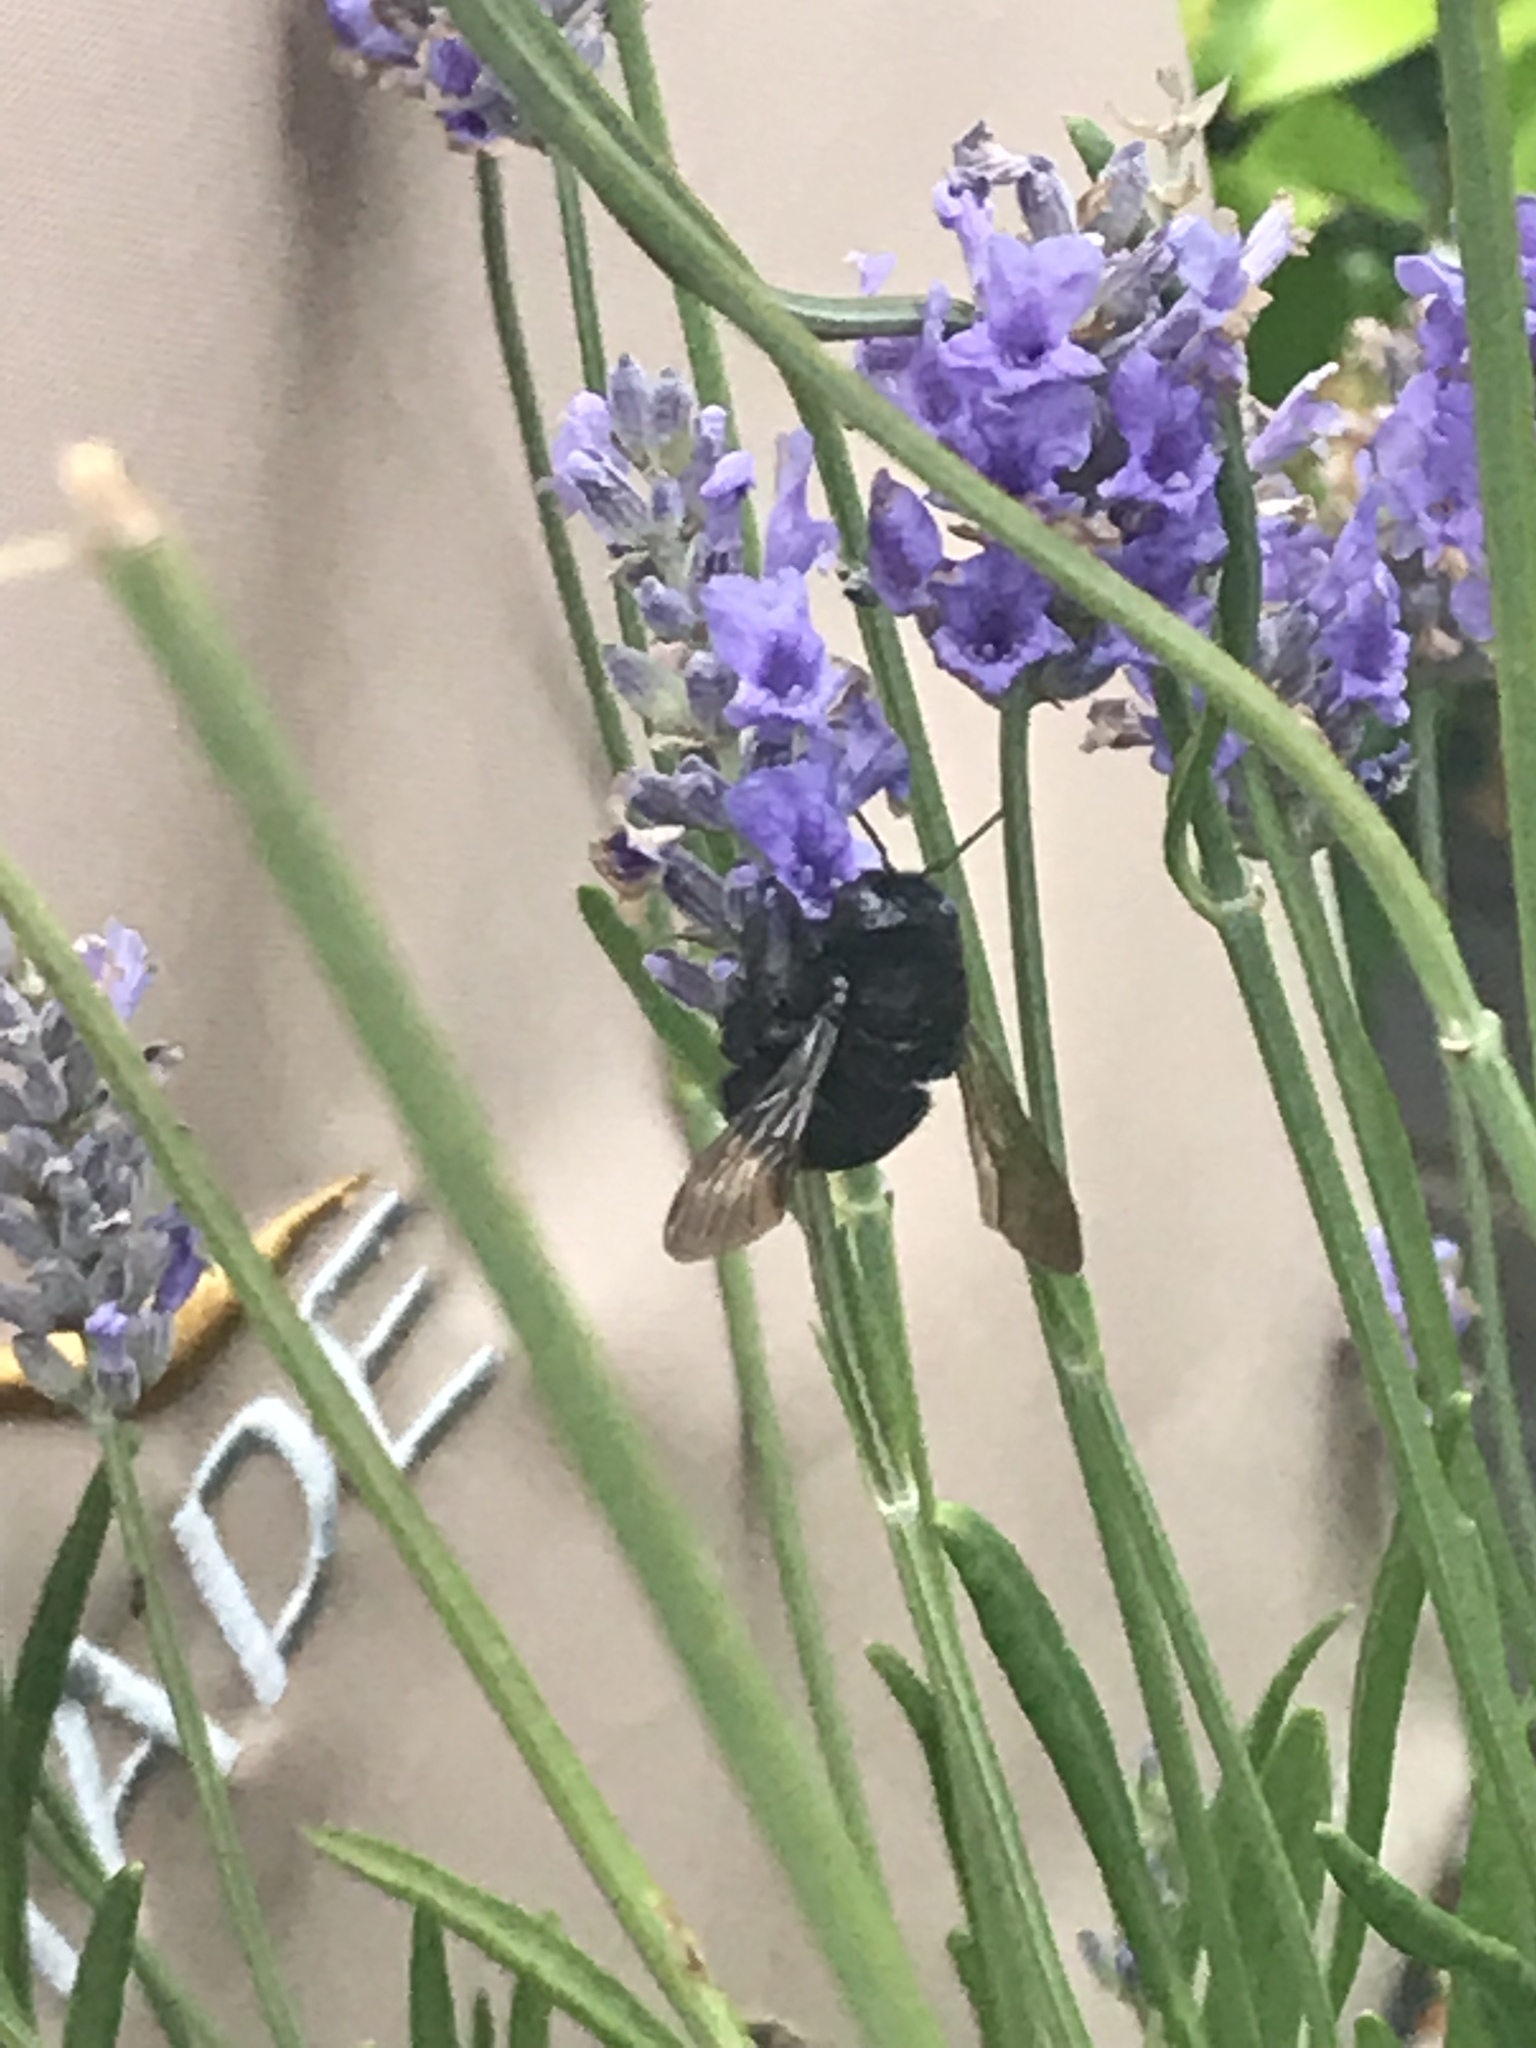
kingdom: Animalia
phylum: Arthropoda
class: Insecta
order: Hymenoptera
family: Apidae
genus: Xylocopa
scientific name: Xylocopa tabaniformis
